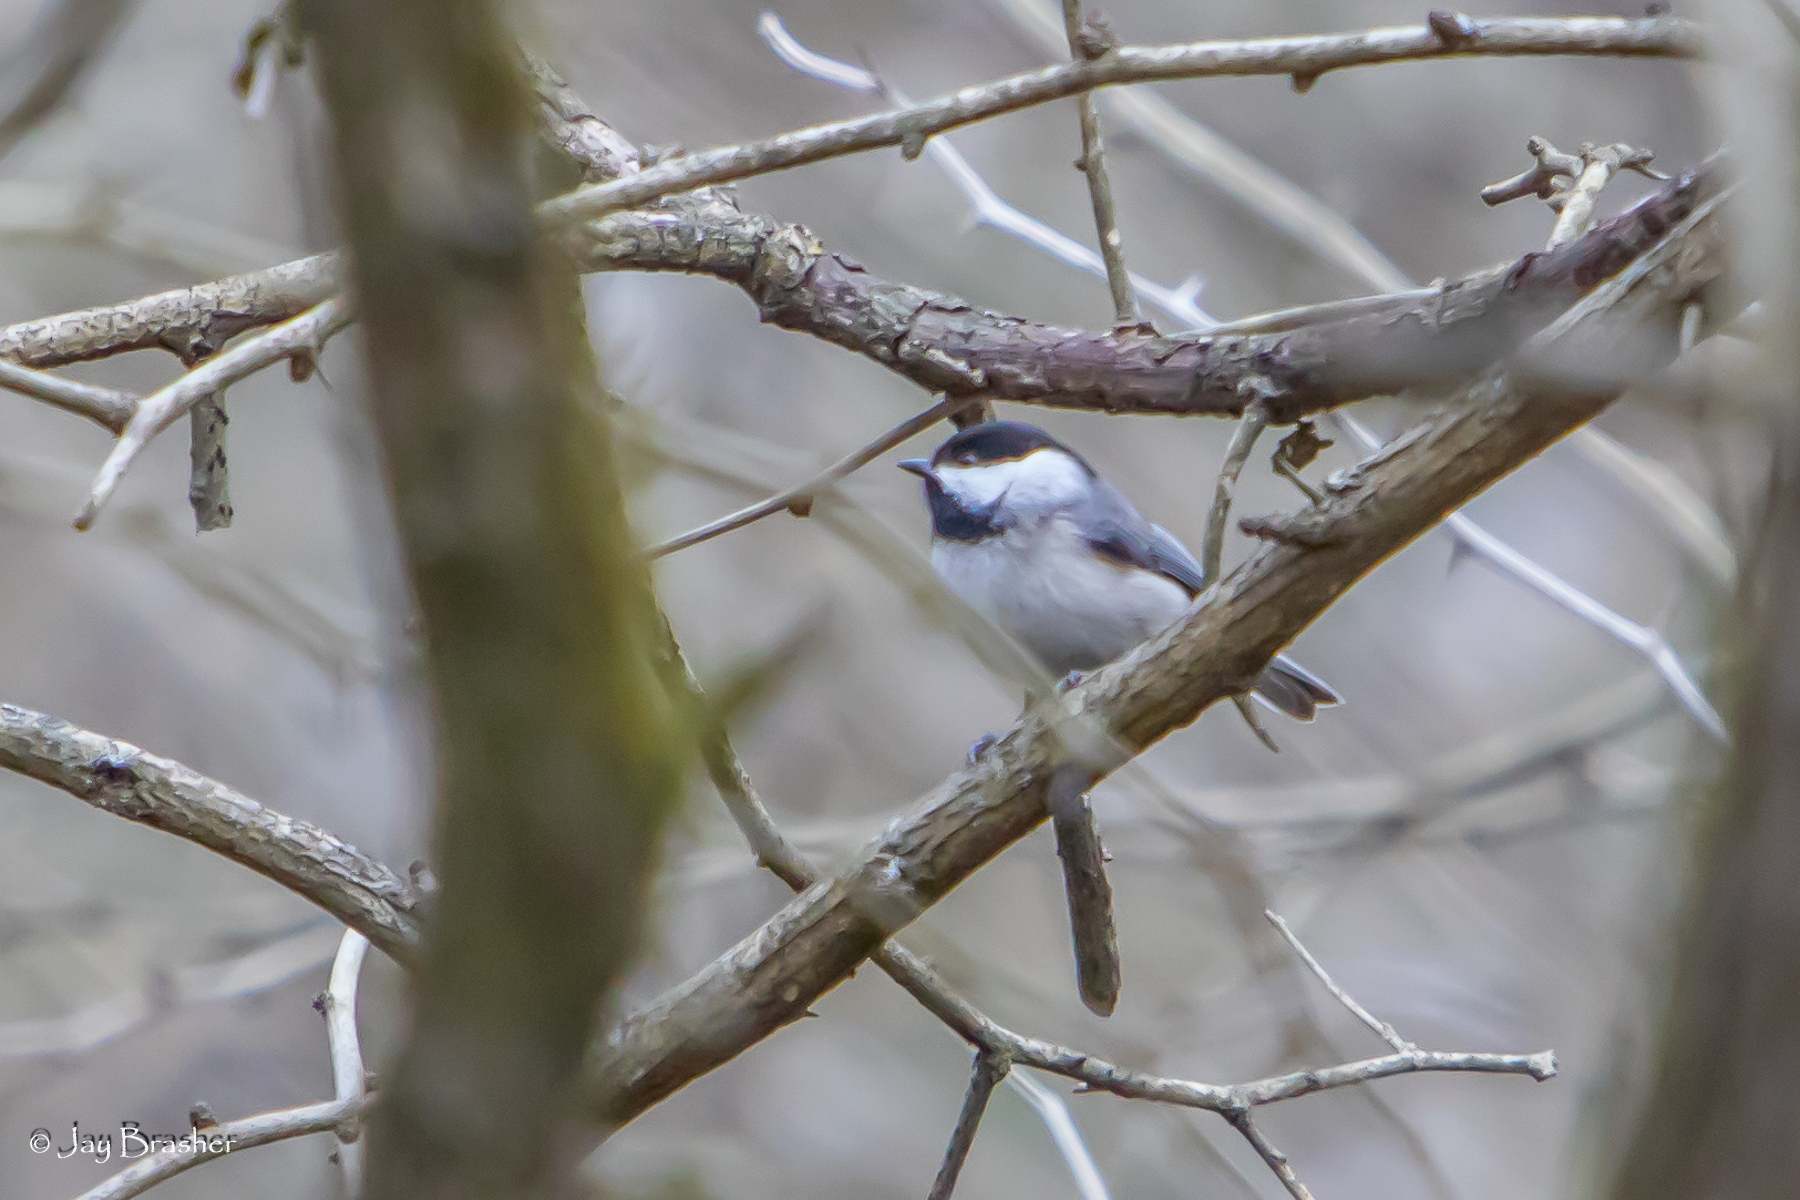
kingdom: Animalia
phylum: Chordata
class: Aves
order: Passeriformes
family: Paridae
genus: Poecile
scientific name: Poecile carolinensis
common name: Carolina chickadee
